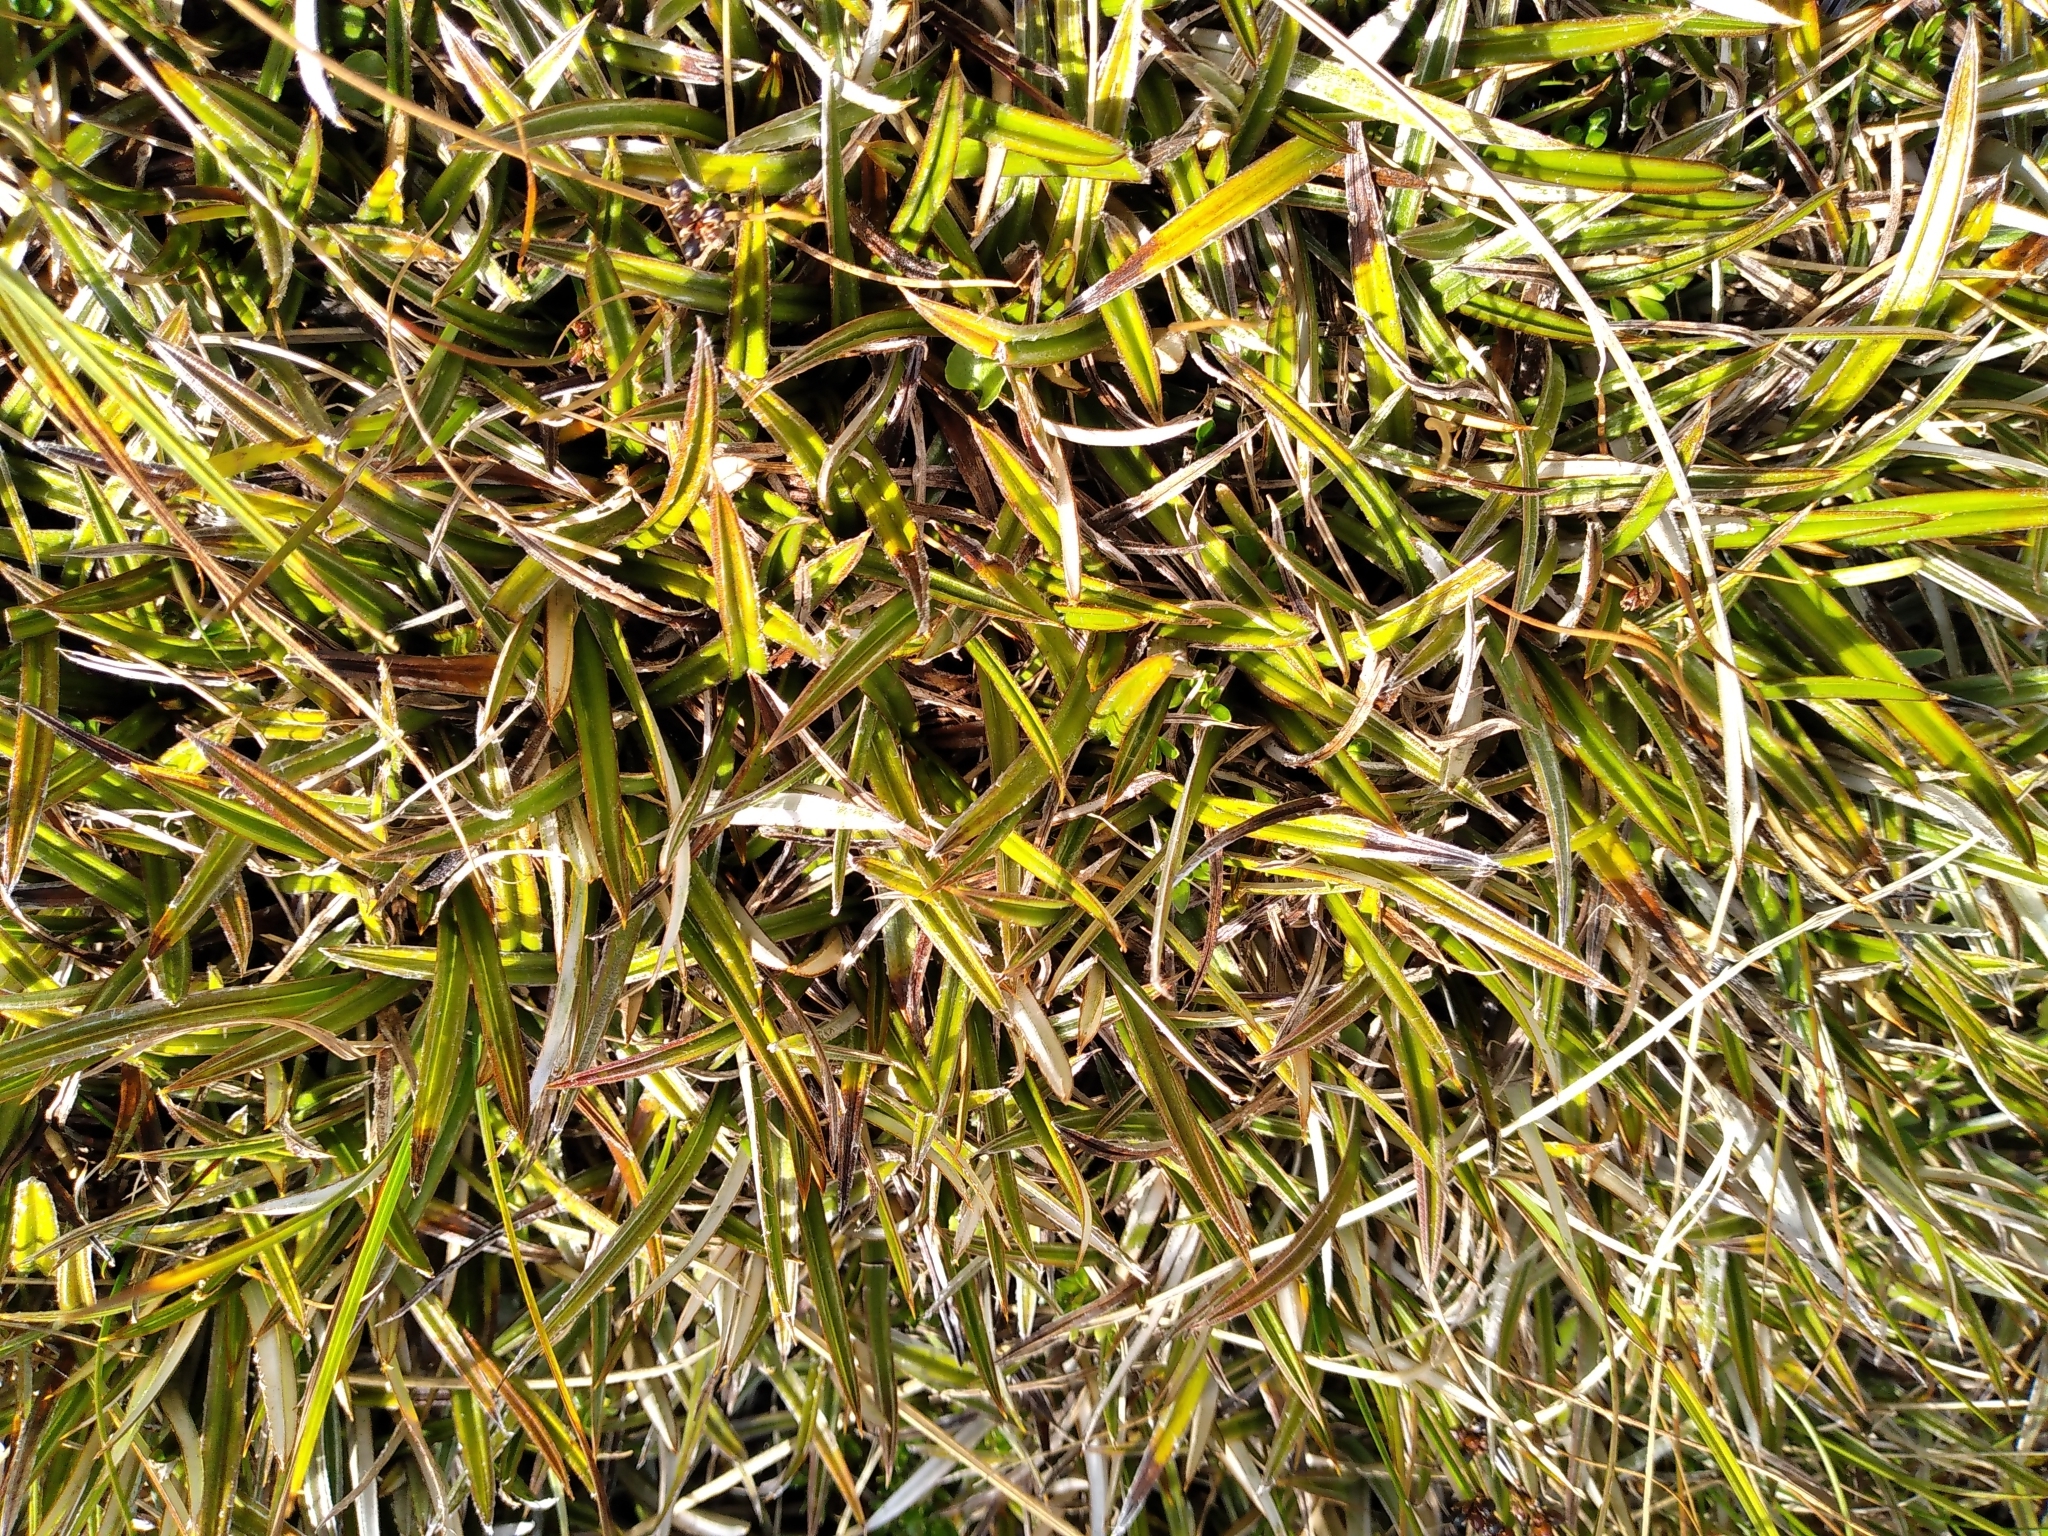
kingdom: Plantae
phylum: Tracheophyta
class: Liliopsida
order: Asparagales
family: Asteliaceae
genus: Astelia
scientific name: Astelia linearis
